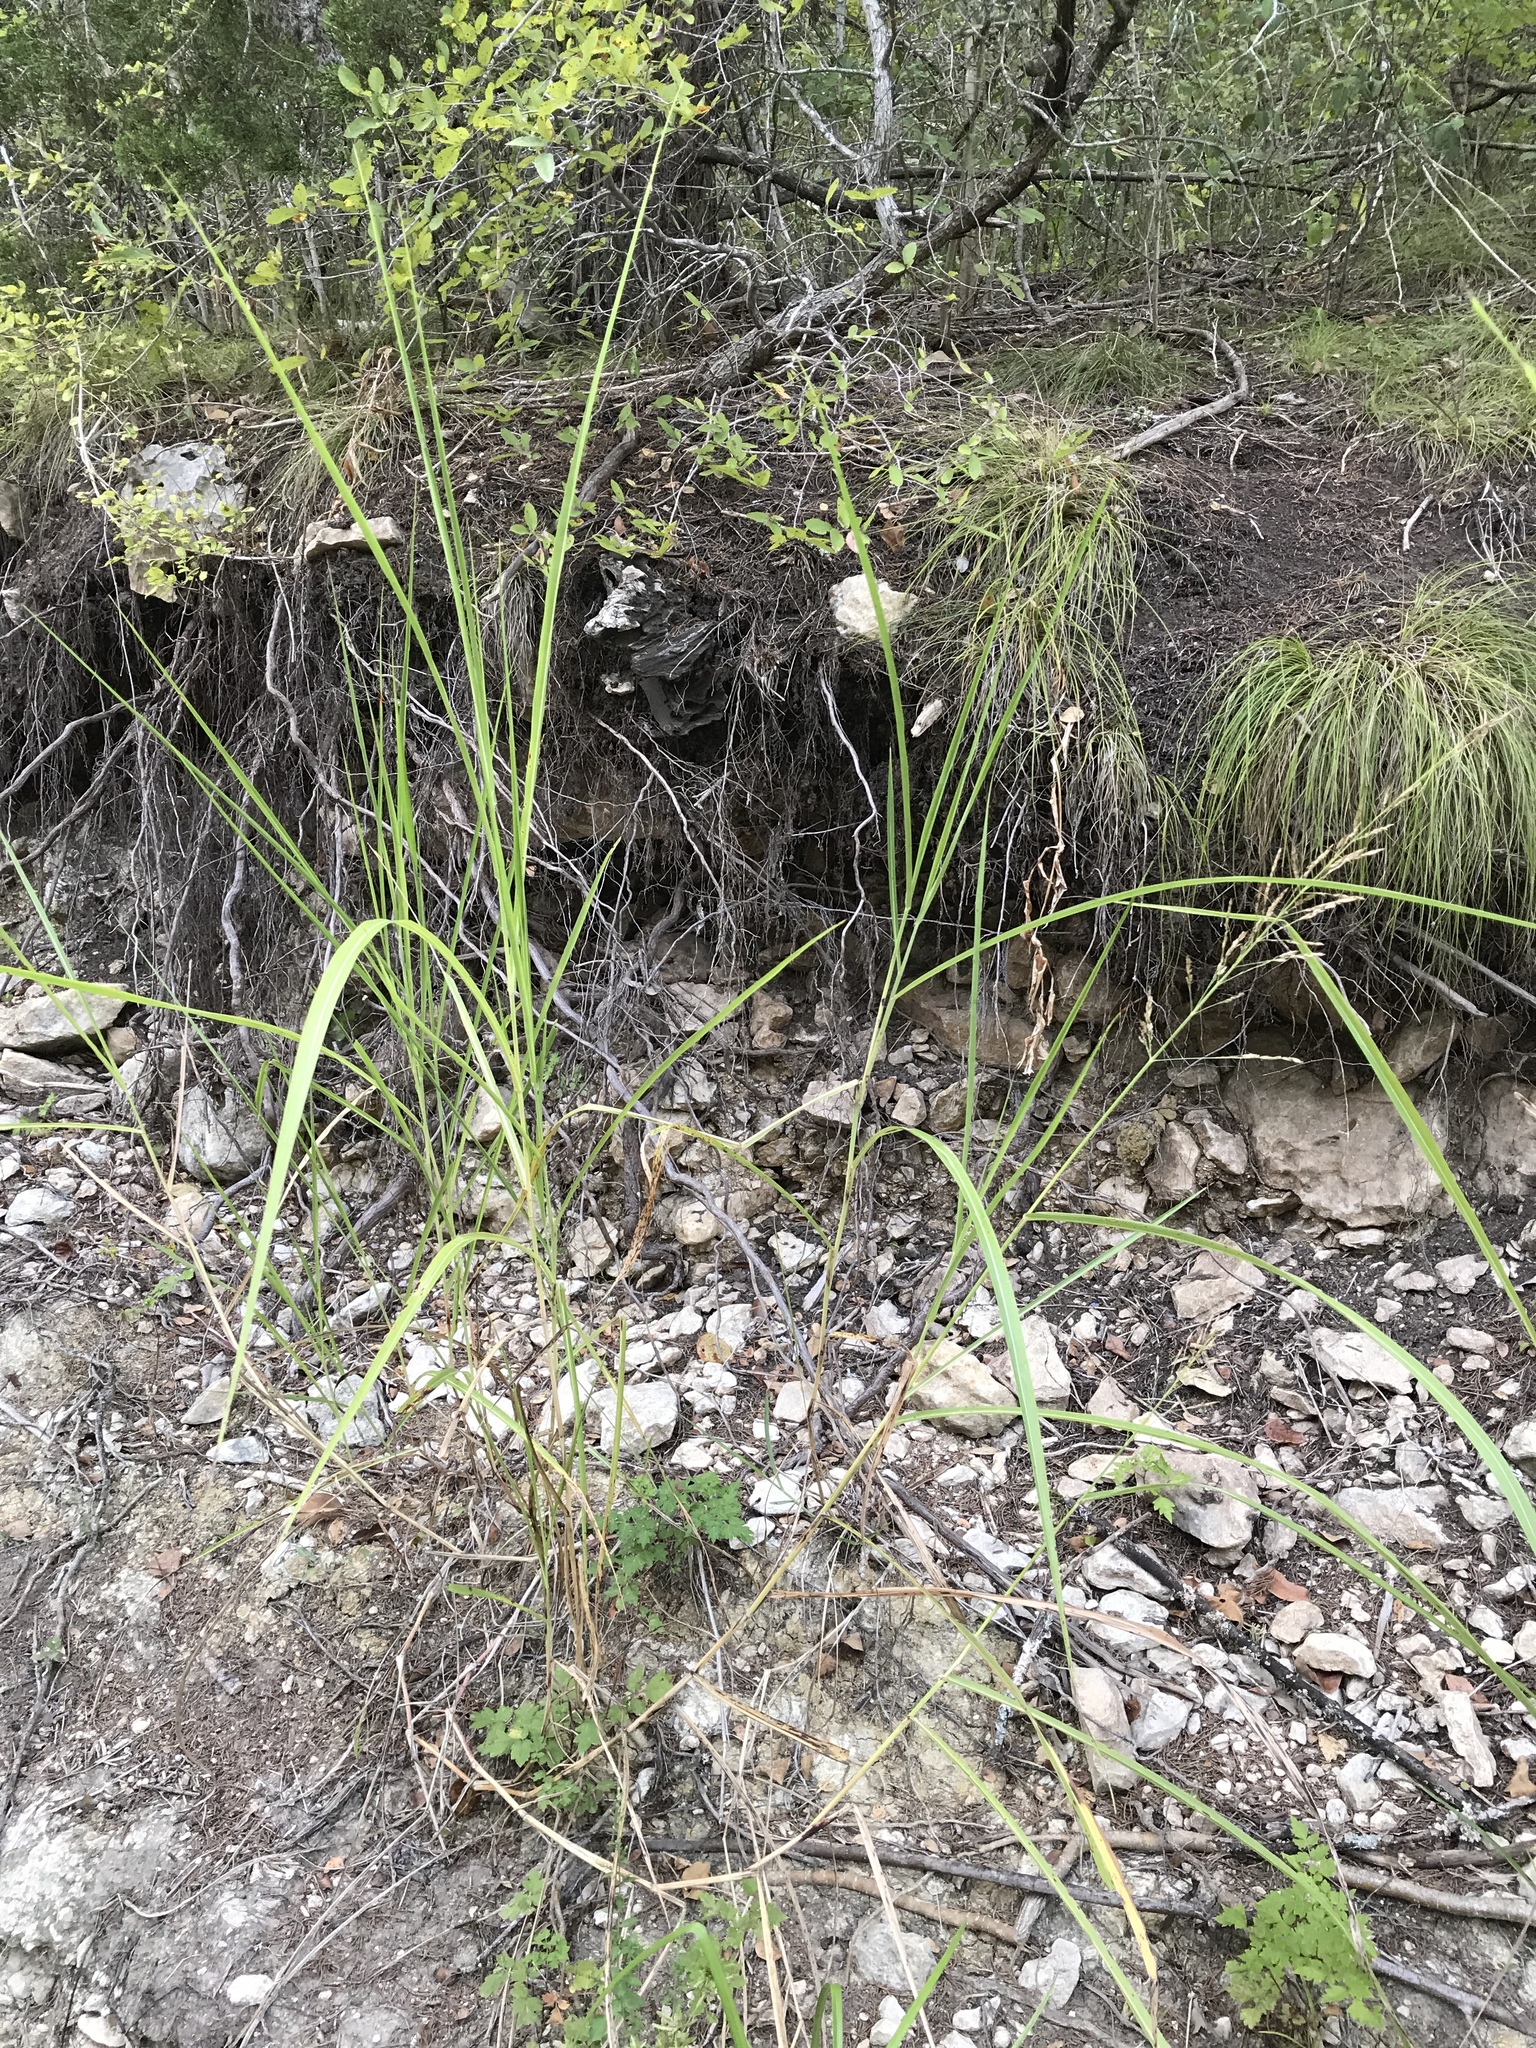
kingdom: Plantae
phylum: Tracheophyta
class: Liliopsida
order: Poales
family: Poaceae
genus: Sorghum
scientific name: Sorghum halepense
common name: Johnson-grass
